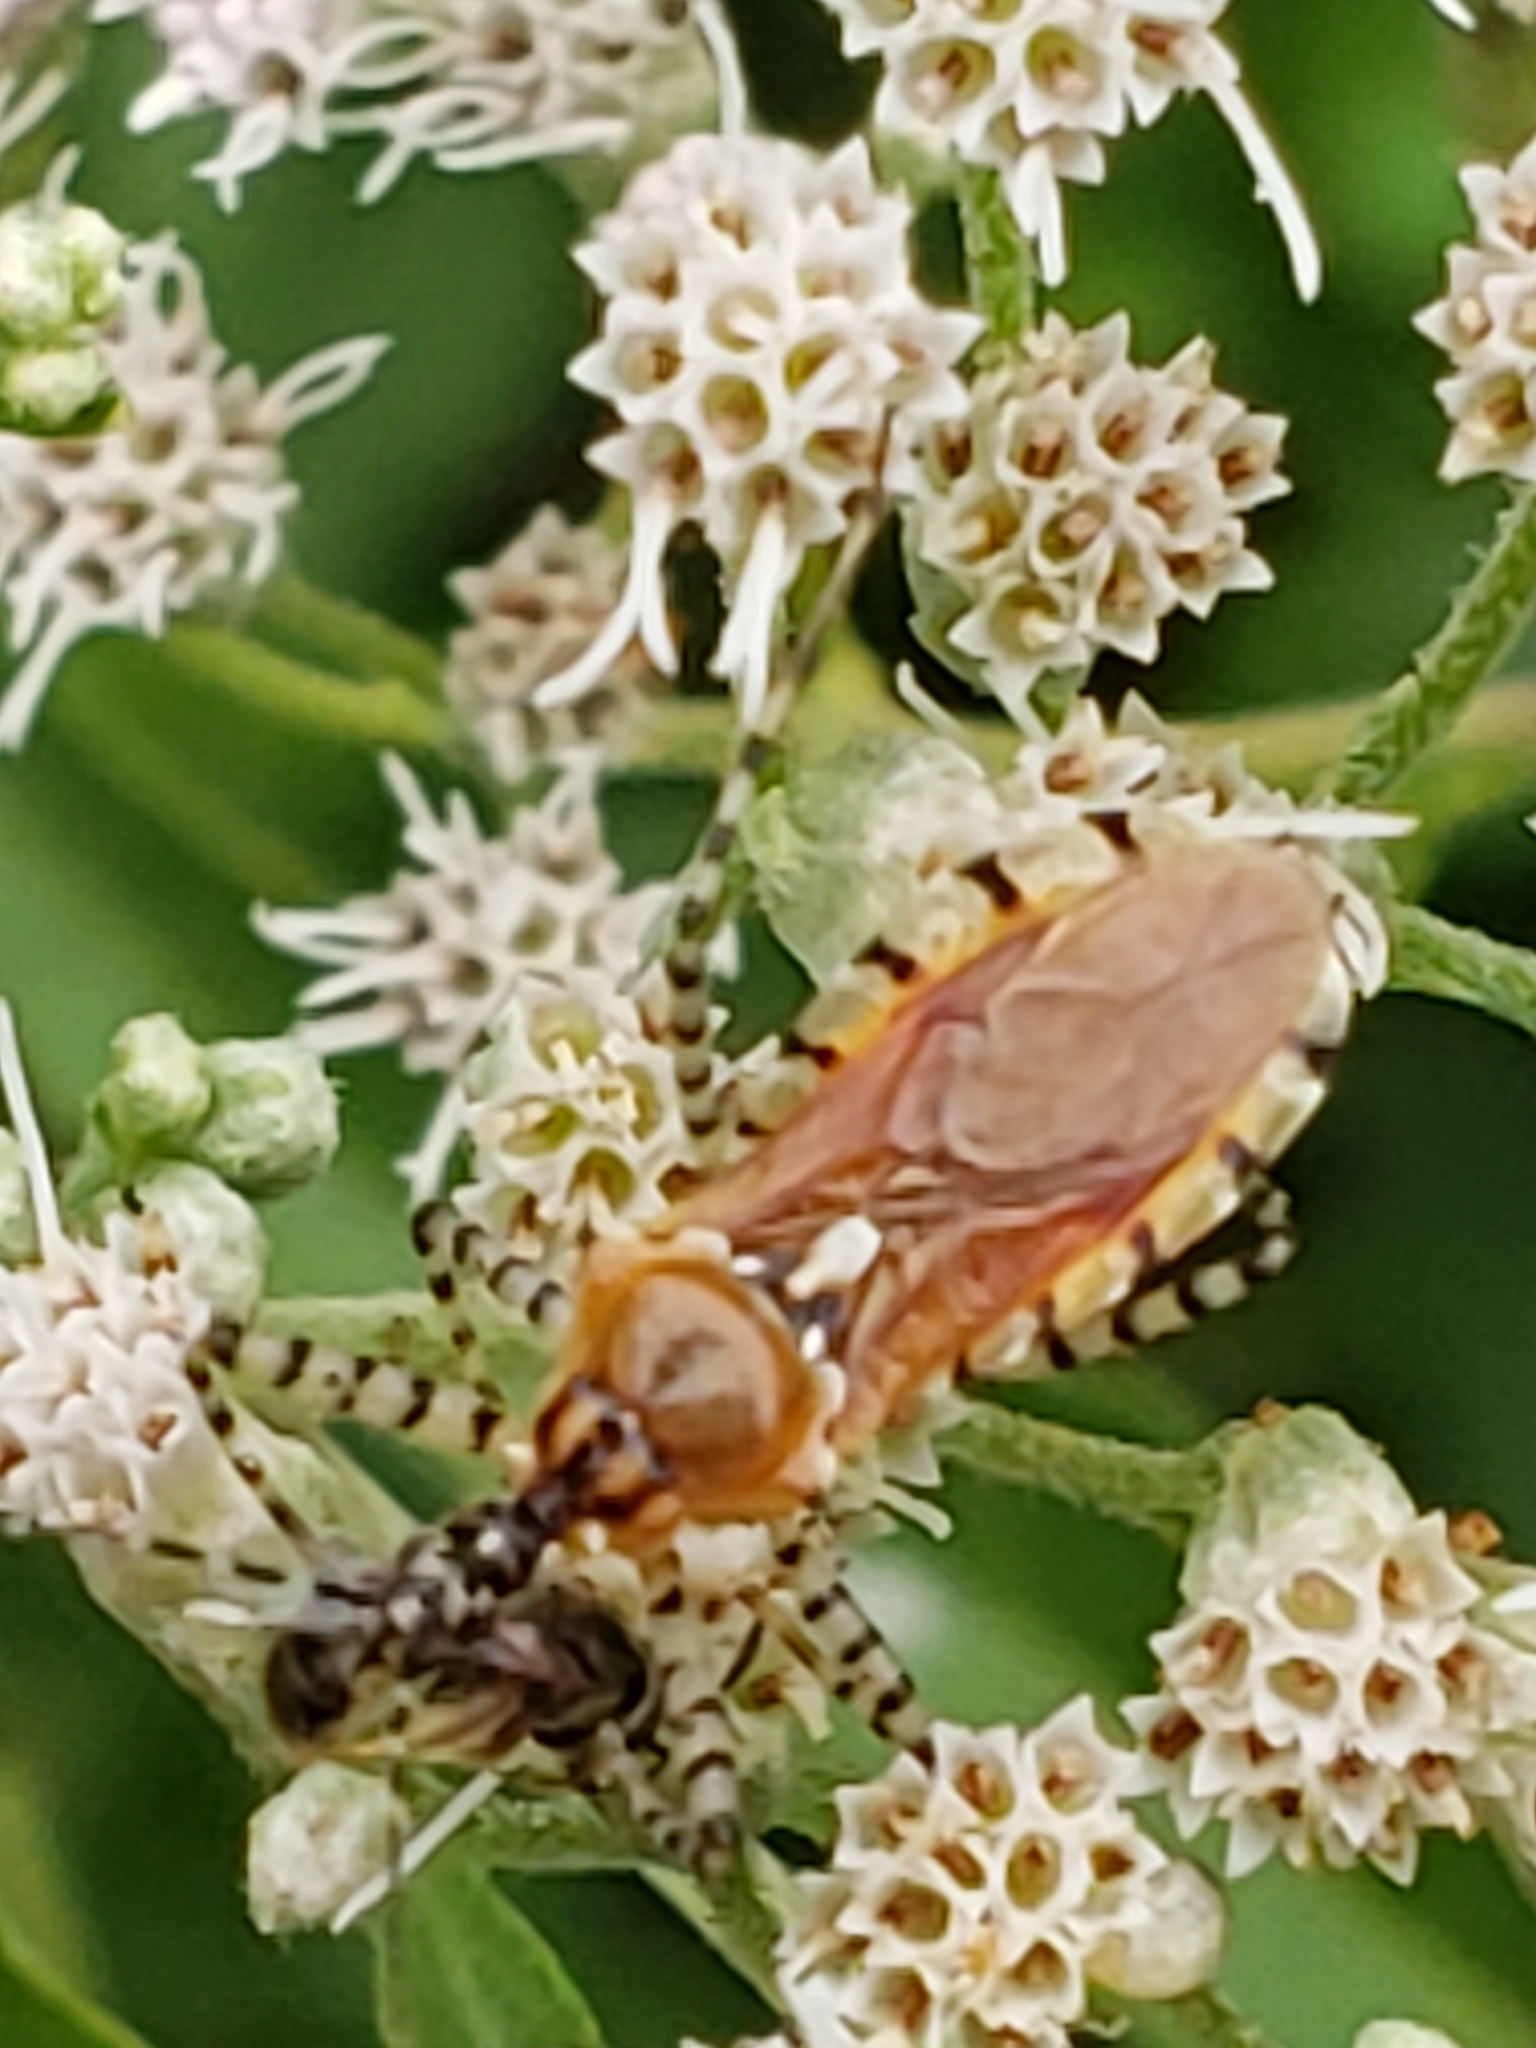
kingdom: Animalia
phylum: Arthropoda
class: Insecta
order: Hemiptera
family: Reduviidae
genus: Pselliopus
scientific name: Pselliopus cinctus
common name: Ringed assassin bug
